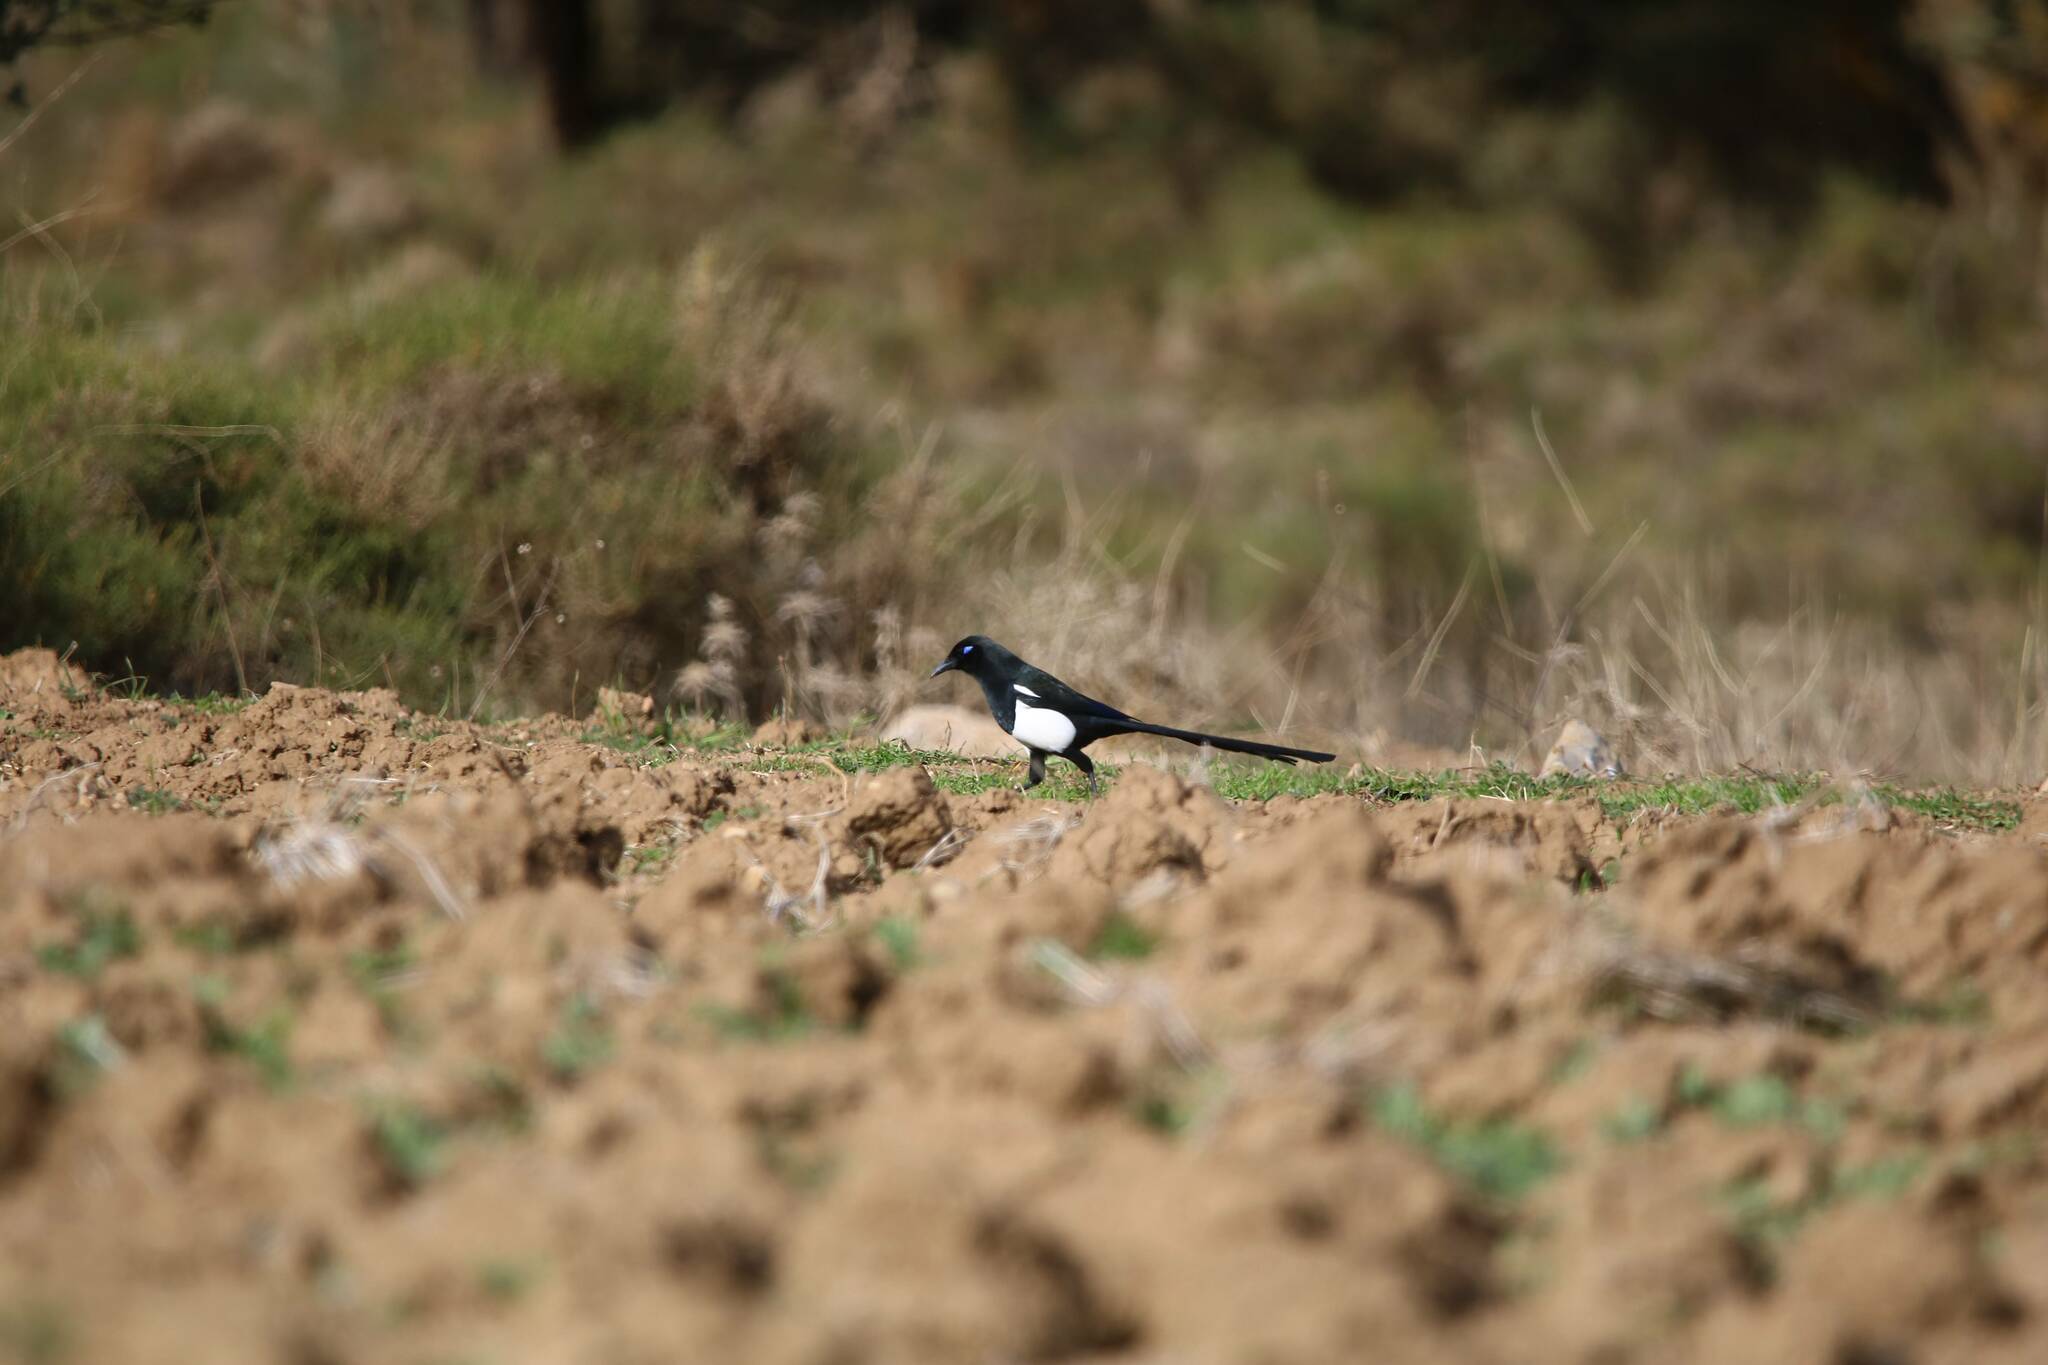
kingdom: Animalia
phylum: Chordata
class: Aves
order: Passeriformes
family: Corvidae
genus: Pica
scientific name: Pica mauritanica
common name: Maghreb magpie
